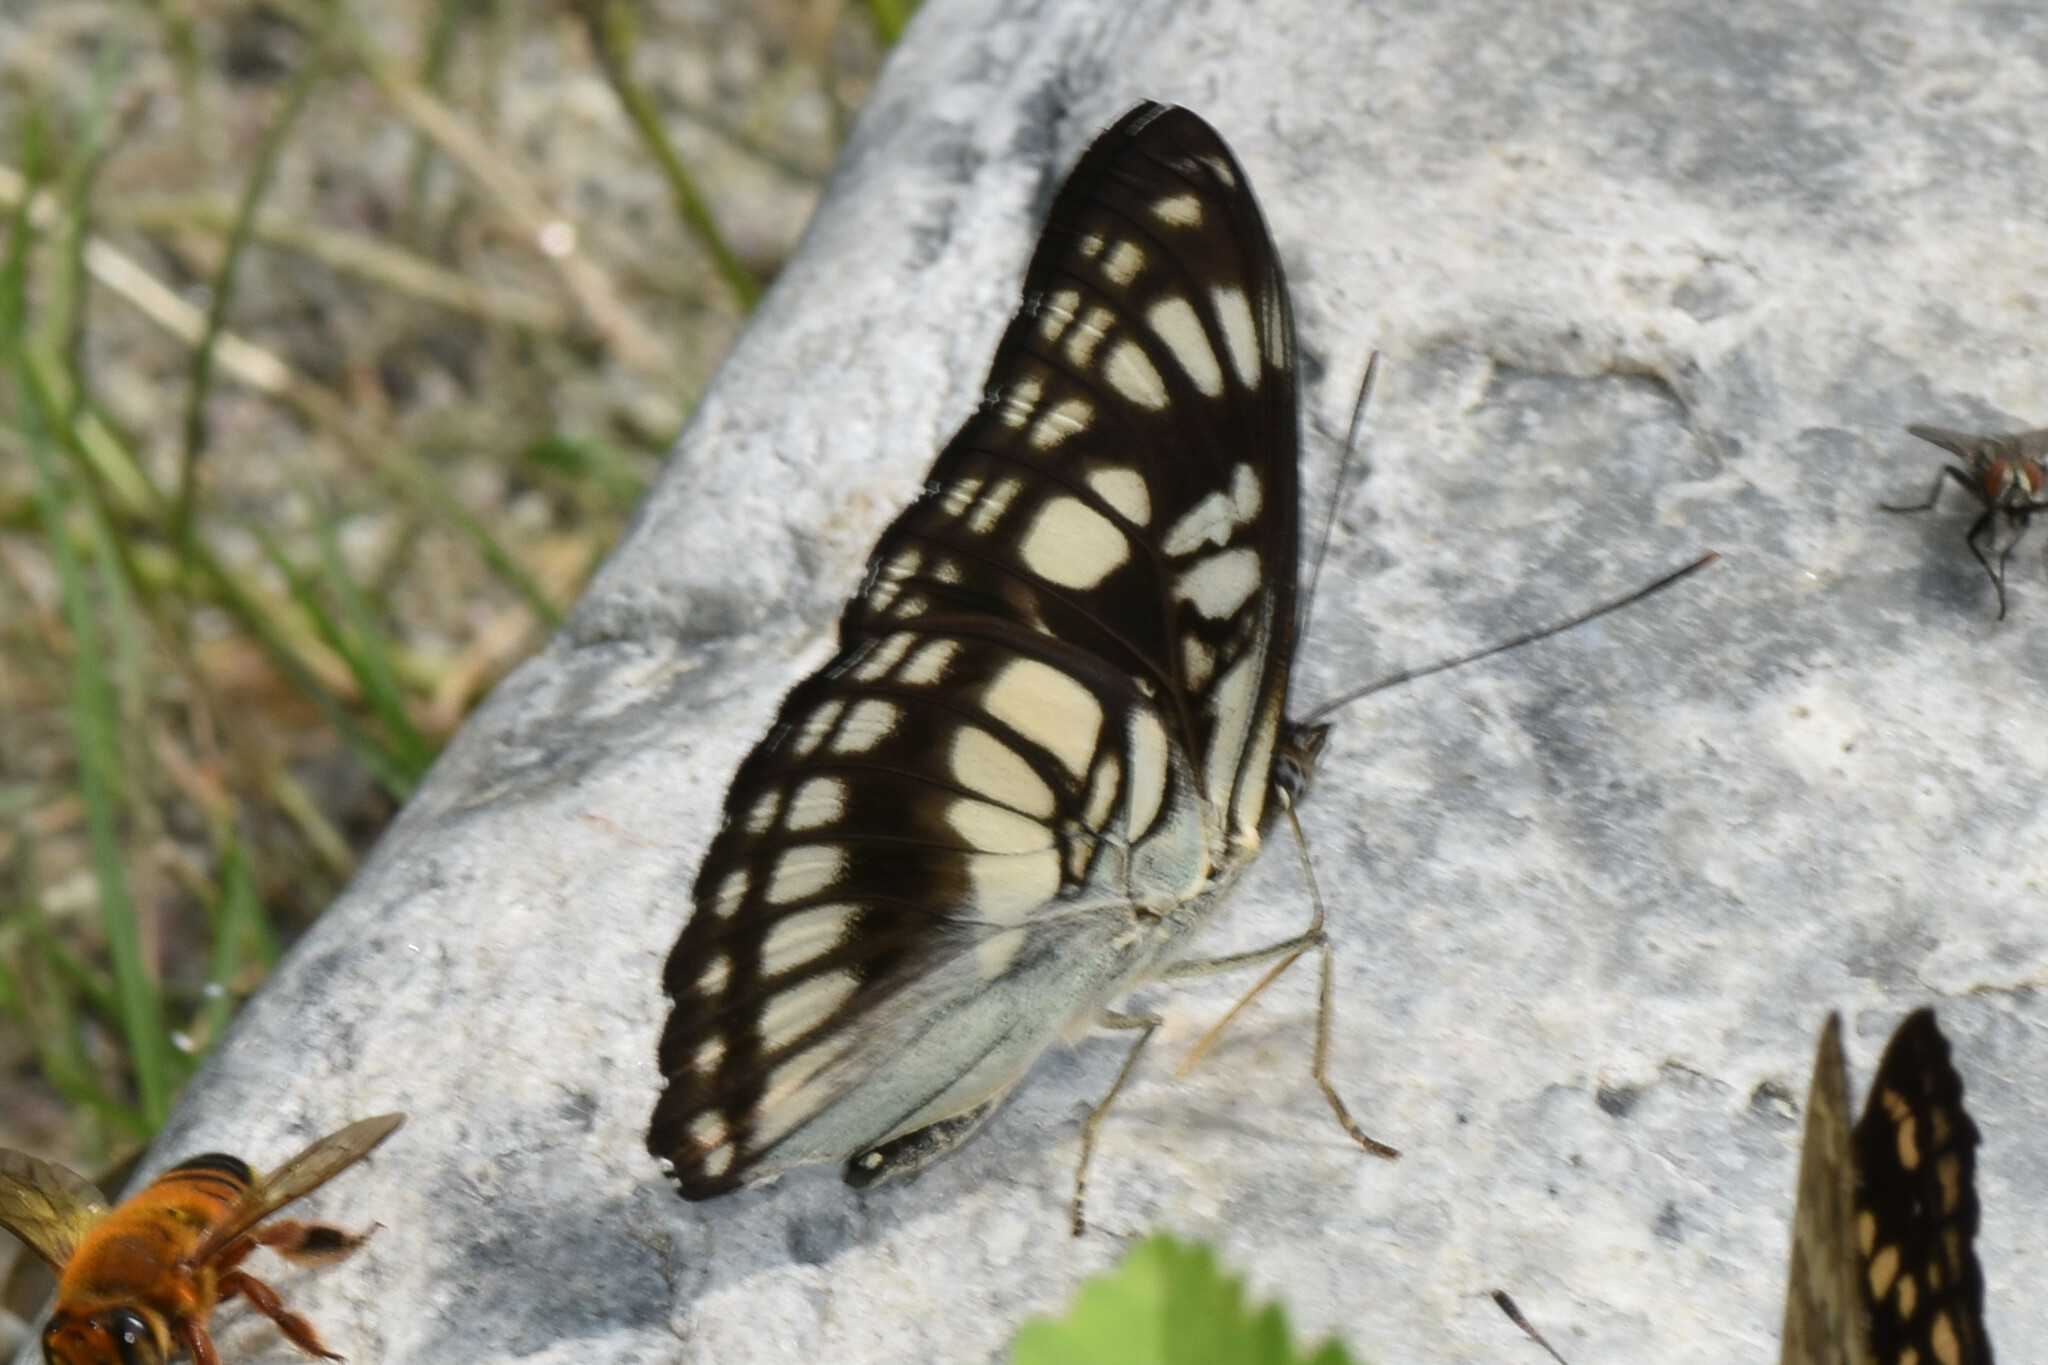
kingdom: Animalia
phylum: Arthropoda
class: Insecta
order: Lepidoptera
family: Nymphalidae
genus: Parathyma
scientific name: Parathyma ranga
